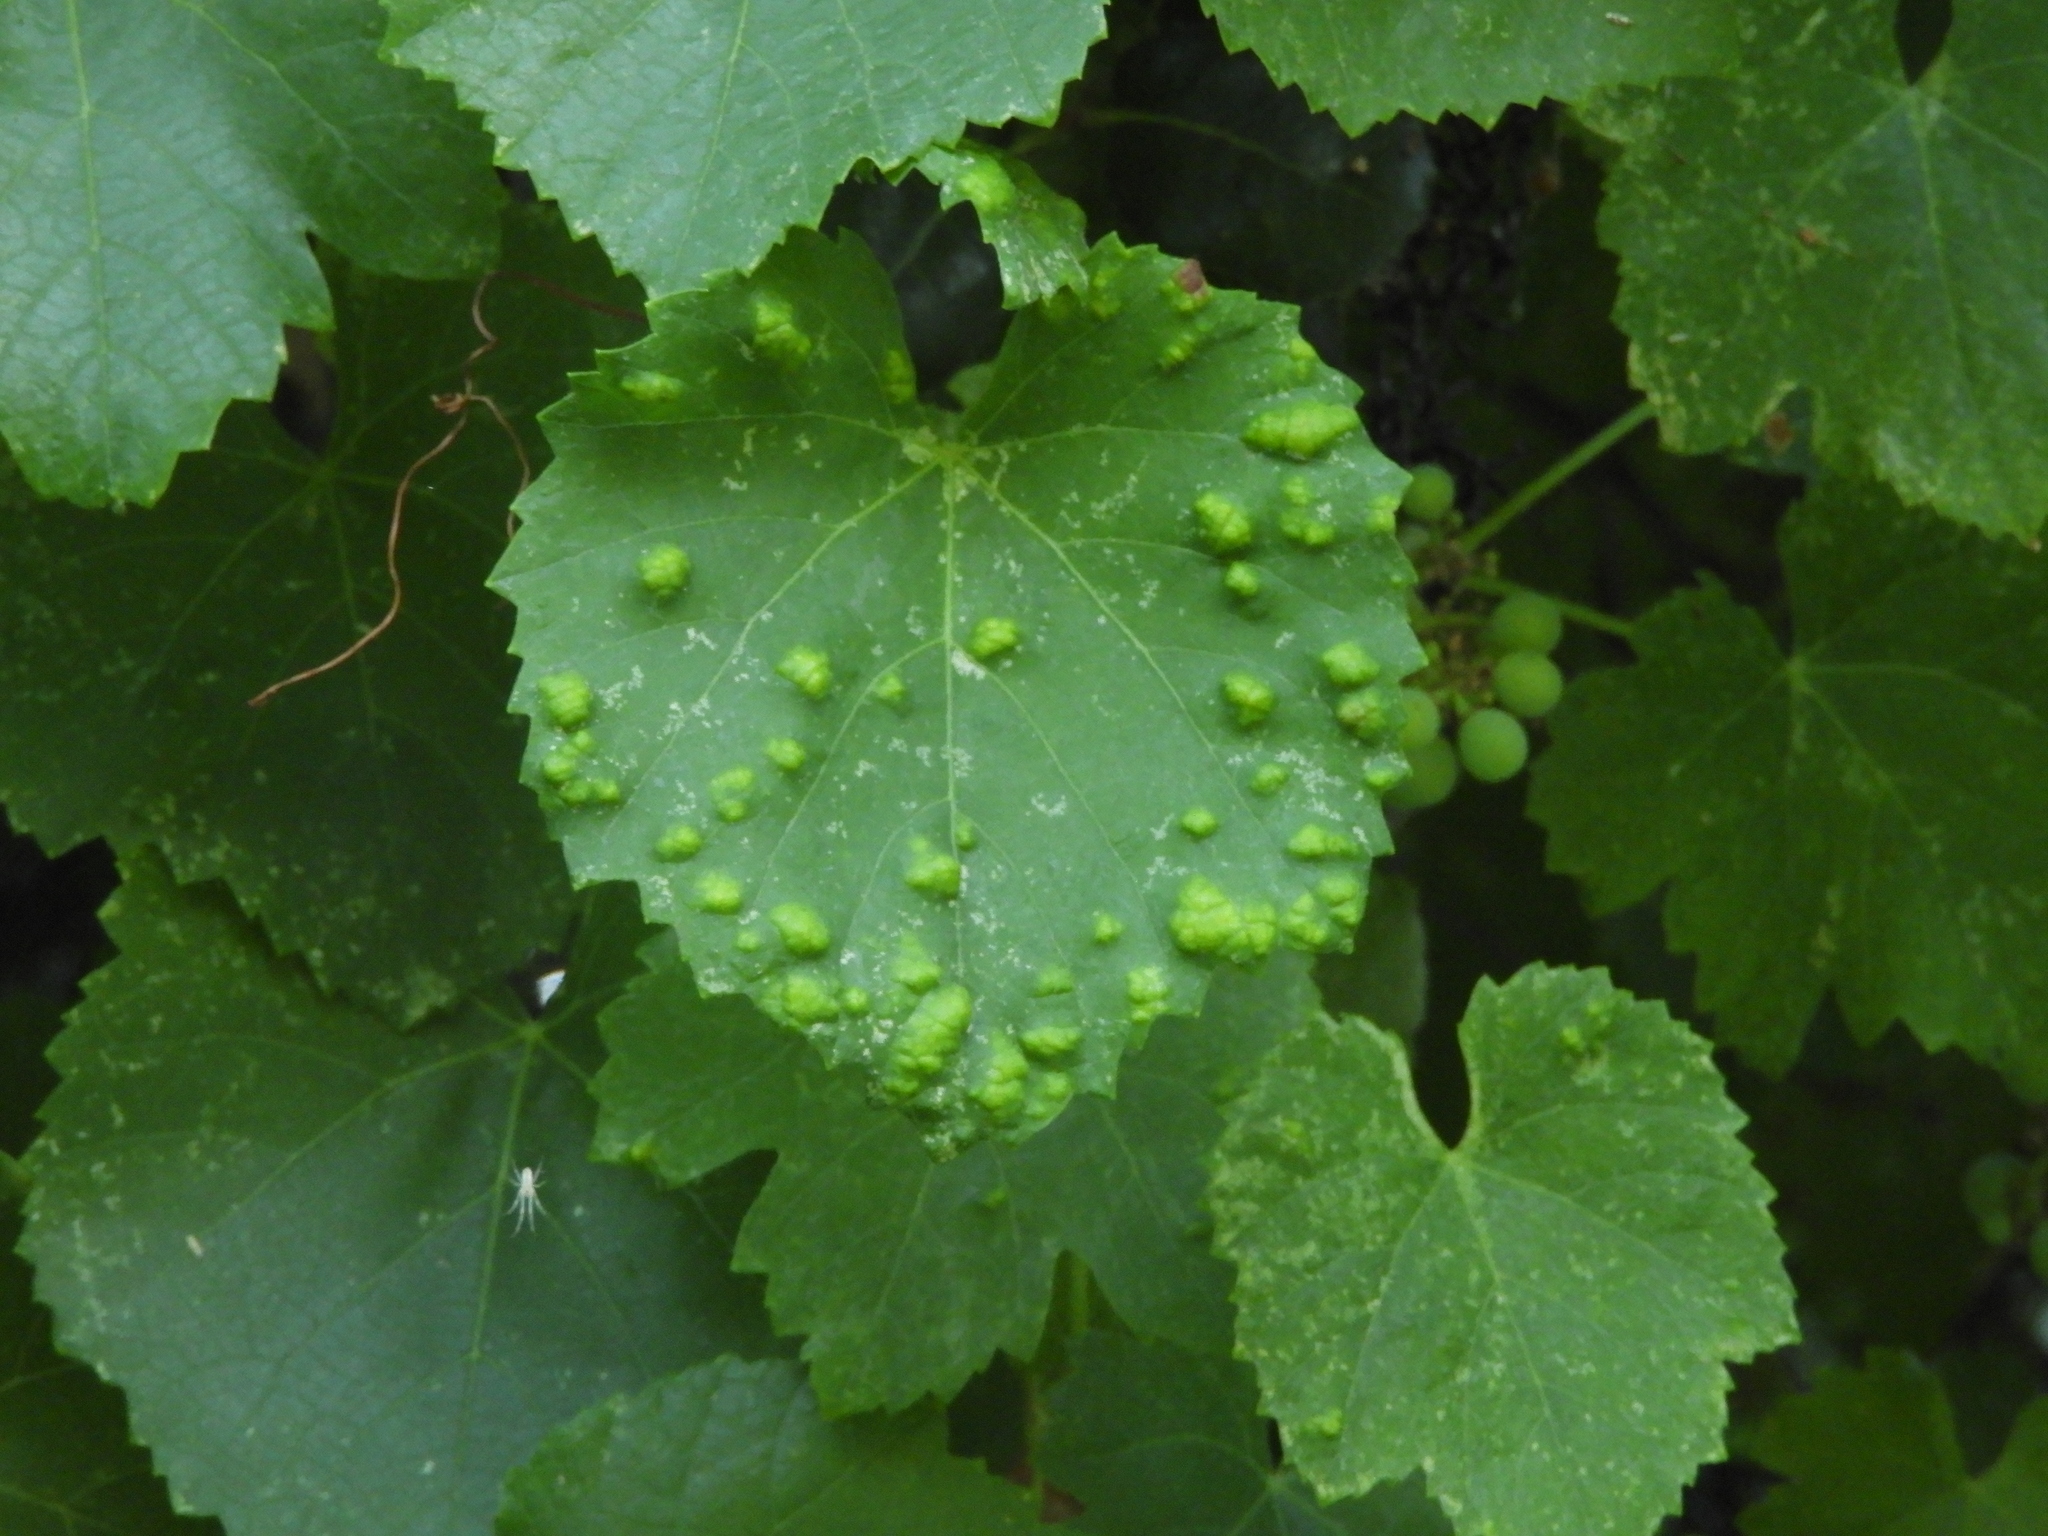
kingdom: Animalia
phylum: Arthropoda
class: Arachnida
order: Trombidiformes
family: Eriophyidae
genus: Colomerus
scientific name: Colomerus vitis
